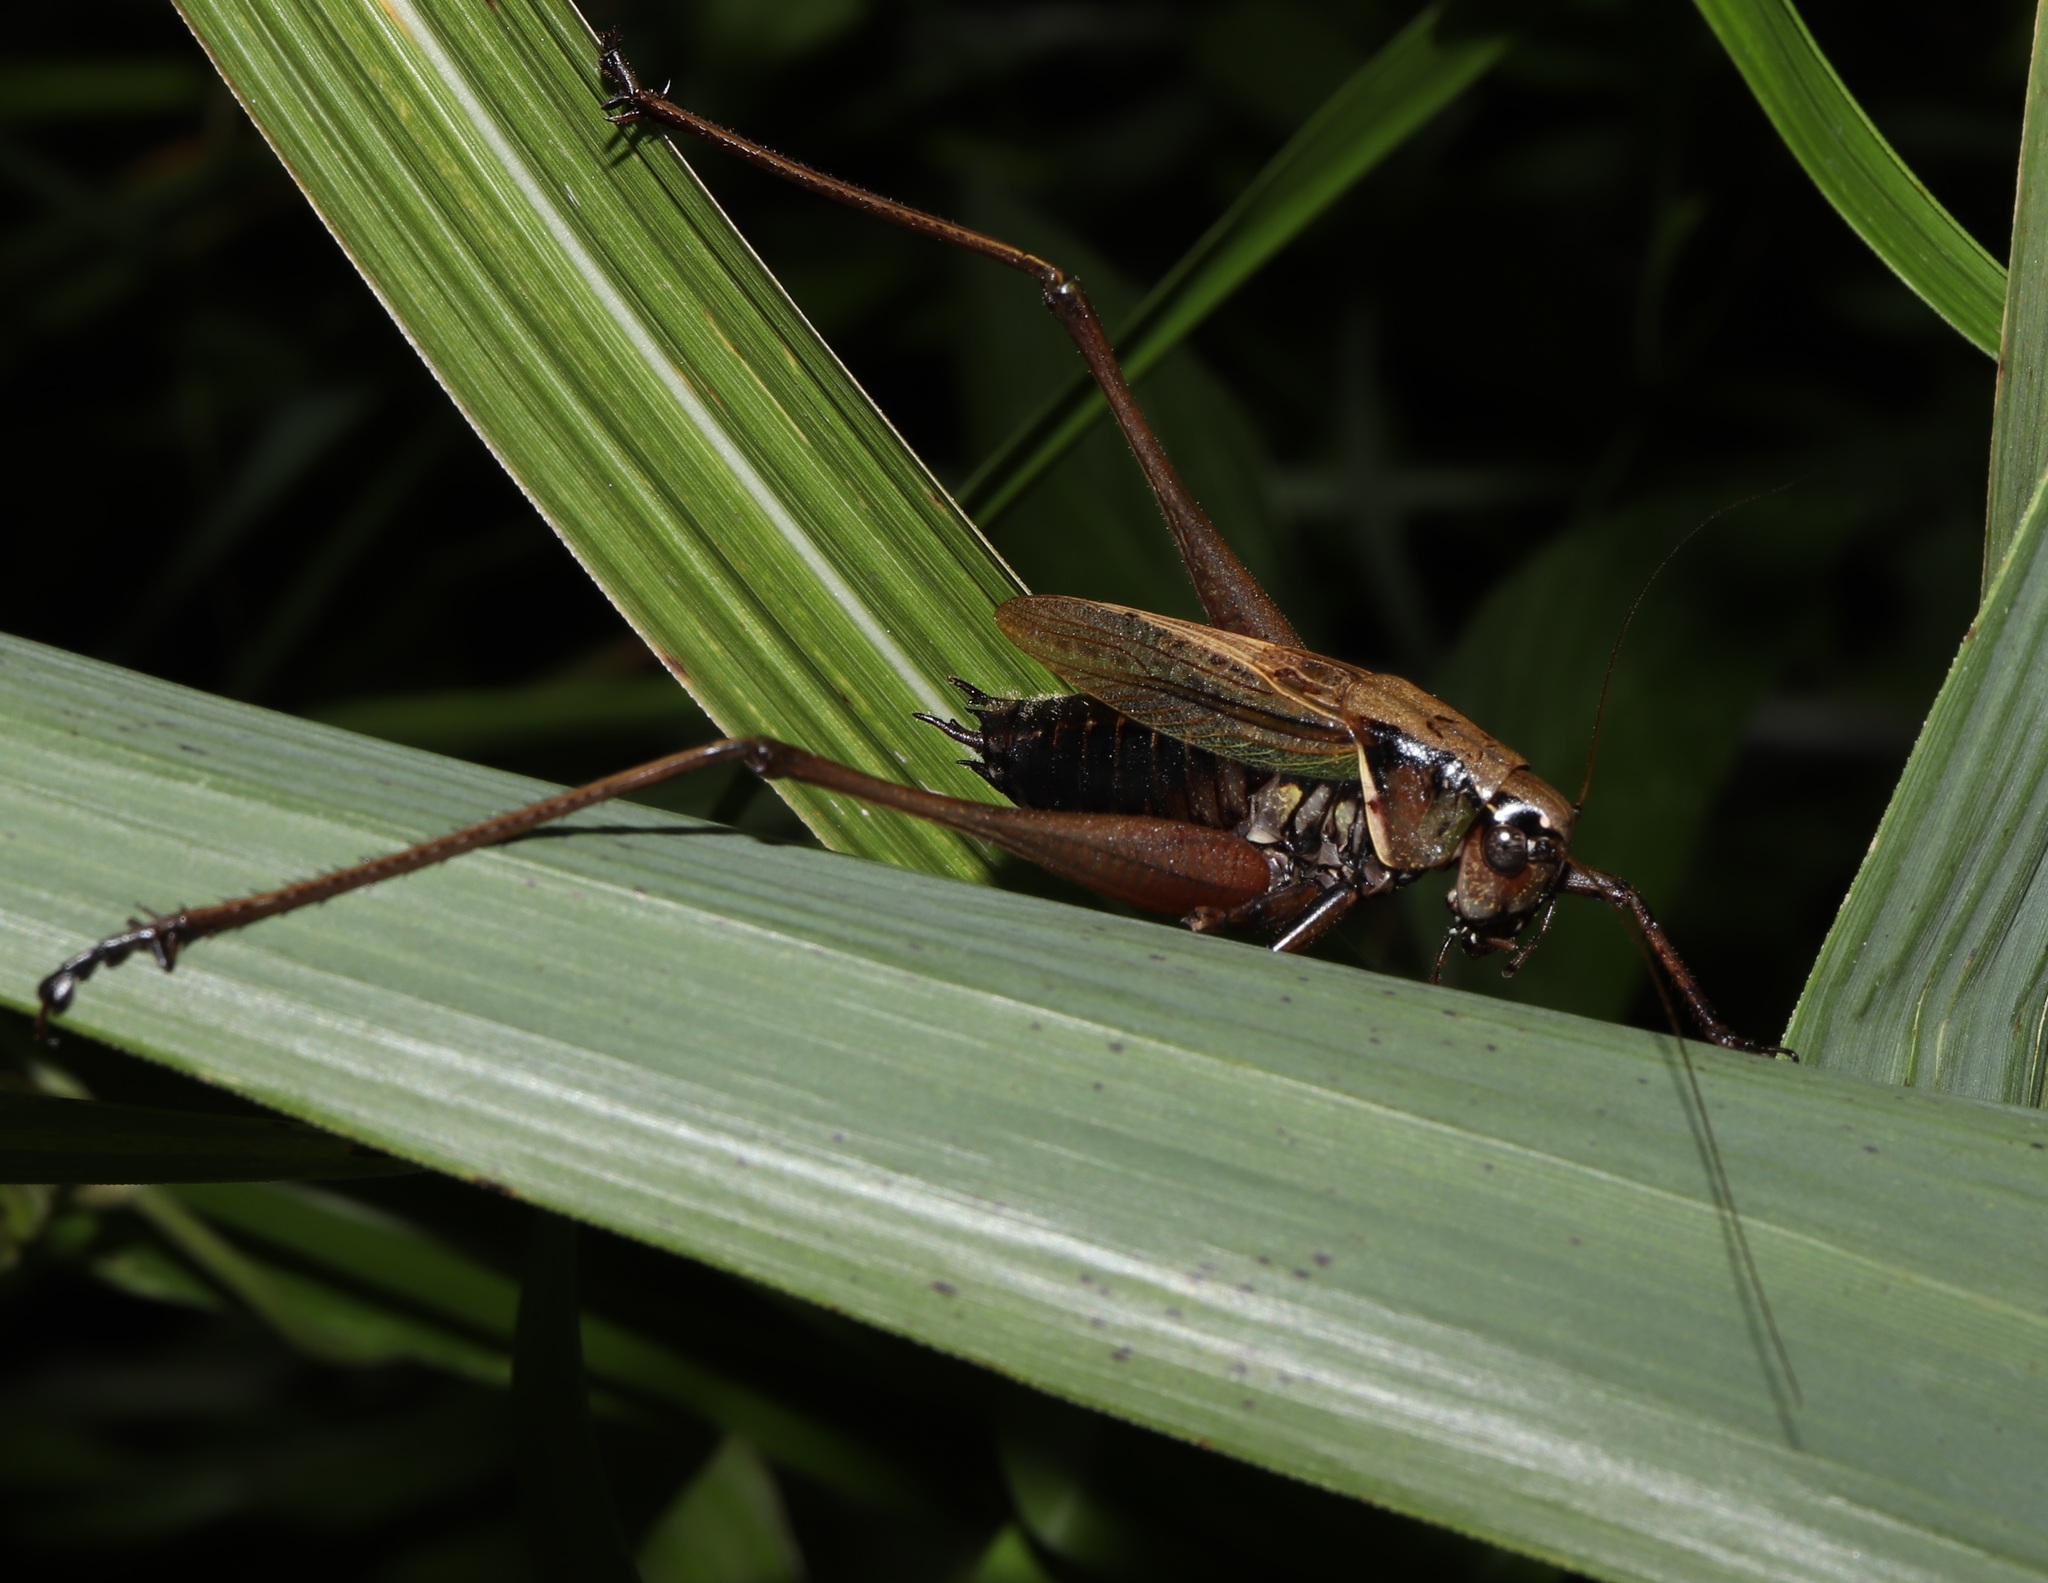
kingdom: Animalia
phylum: Arthropoda
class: Insecta
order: Orthoptera
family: Tettigoniidae
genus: Eobiana
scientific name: Eobiana engelhardti
